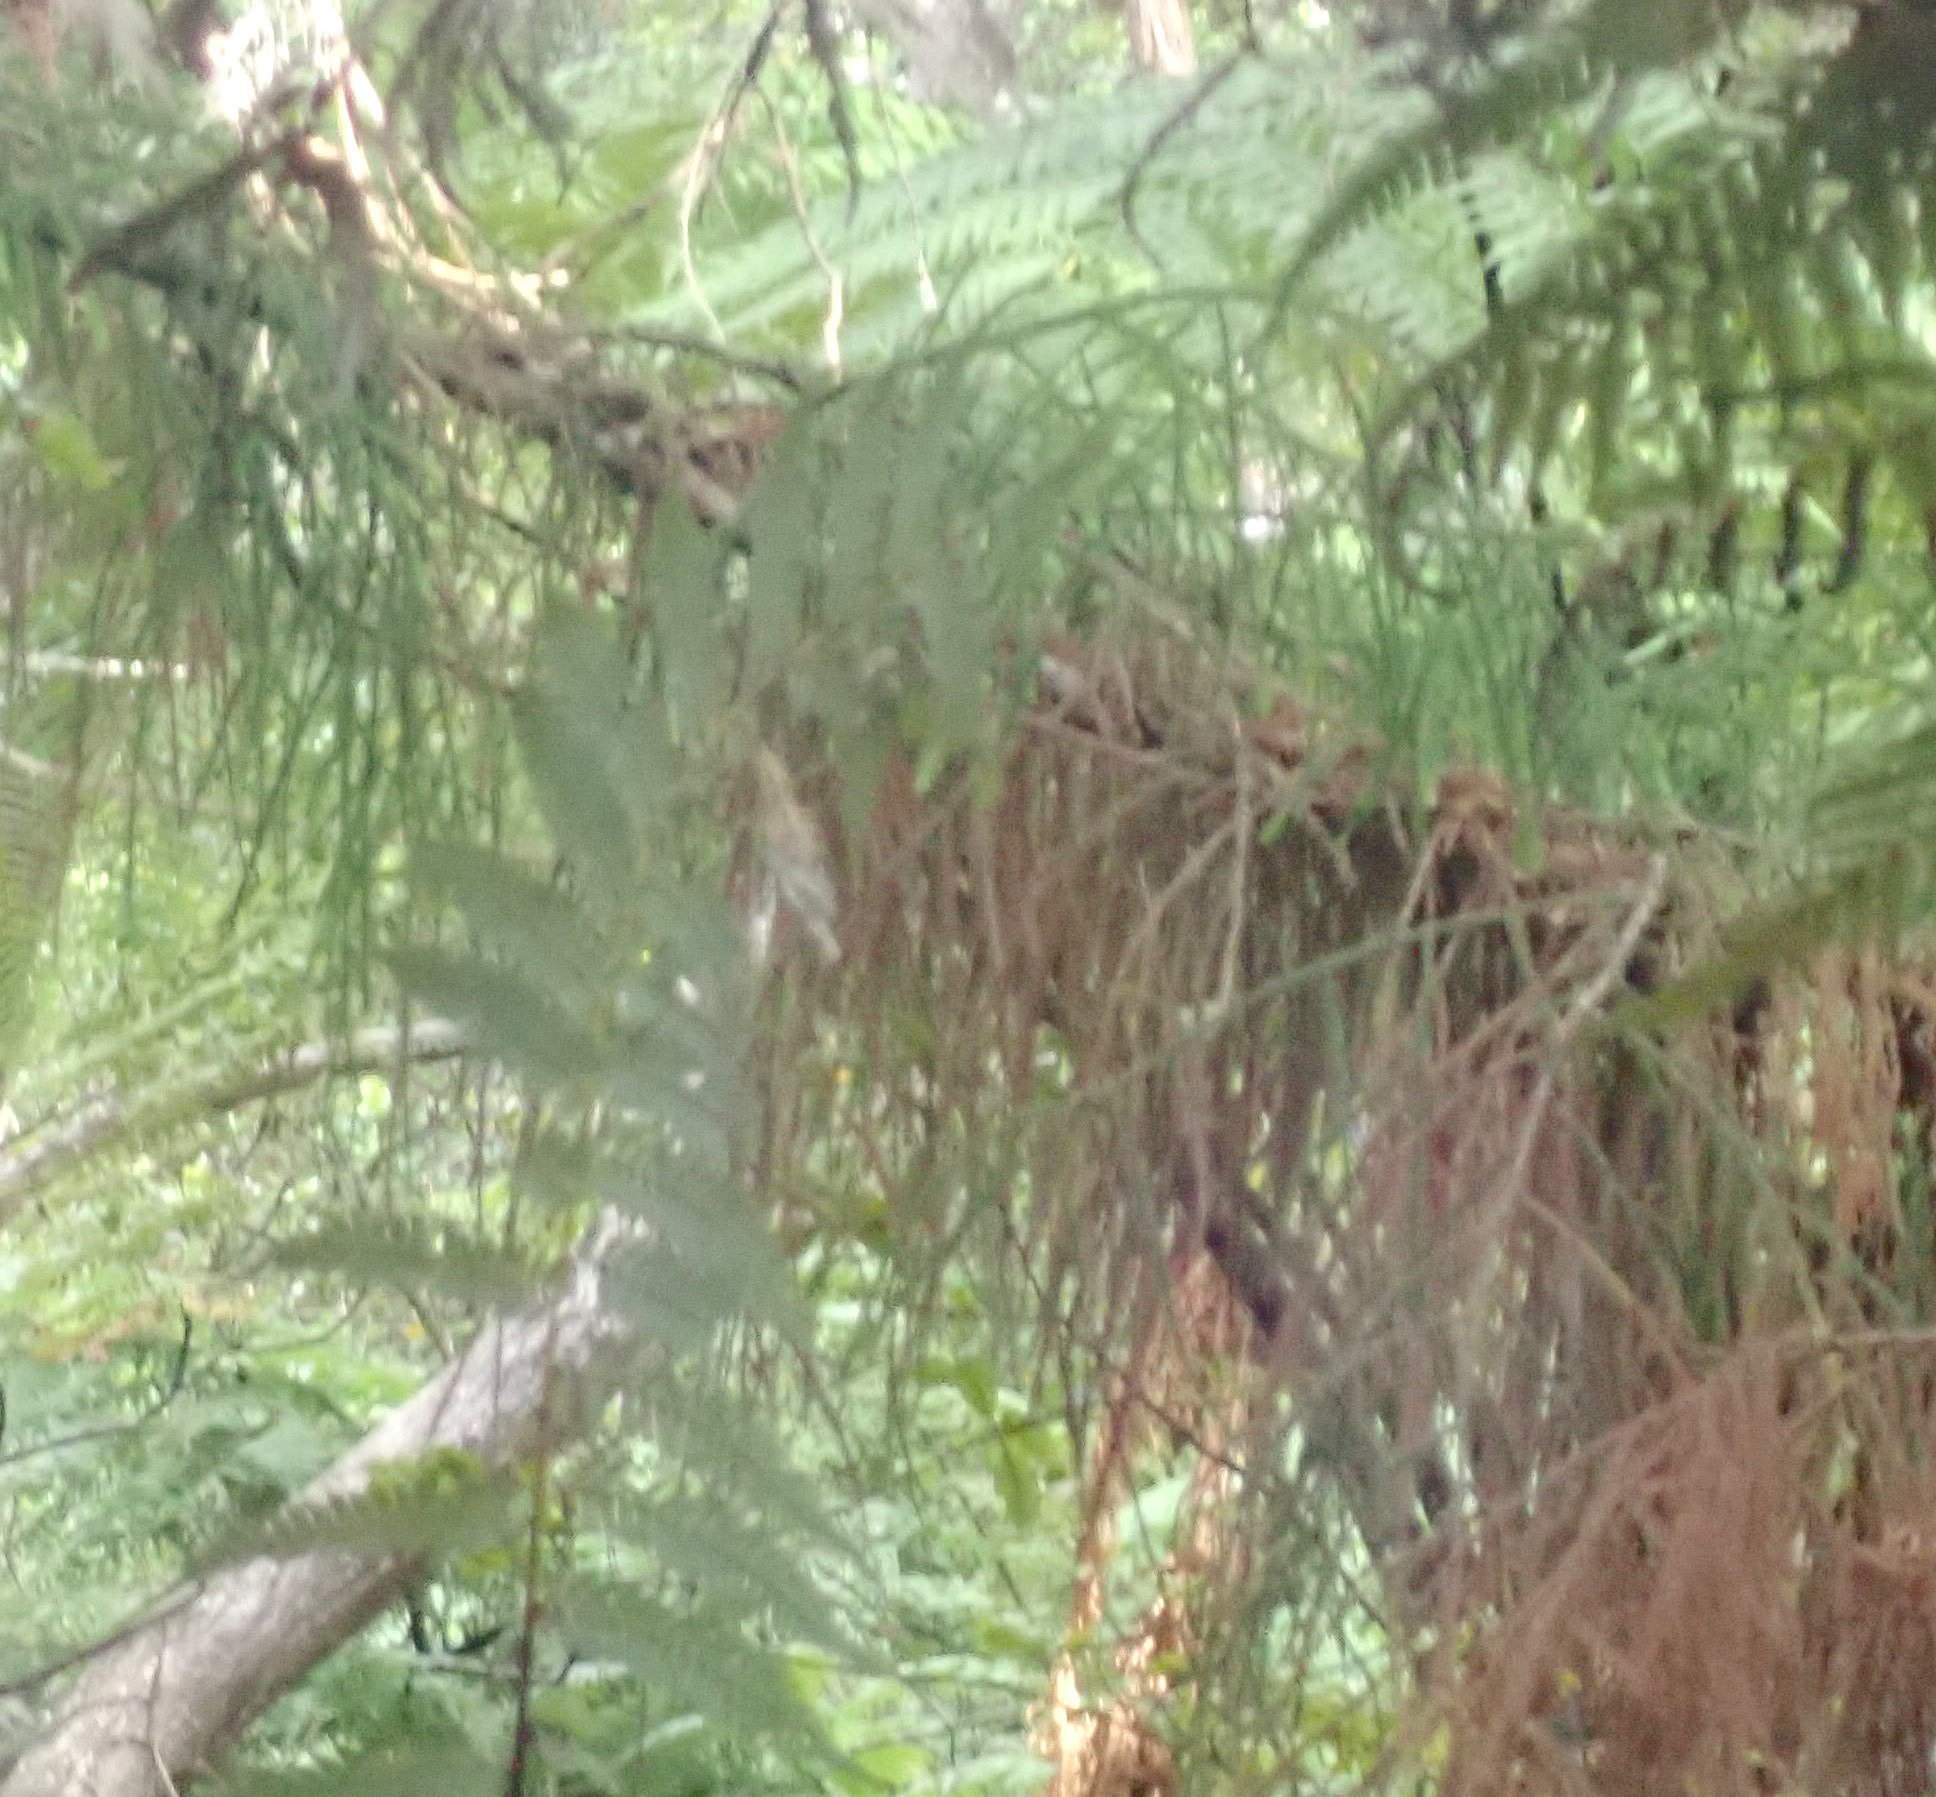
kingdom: Plantae
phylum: Tracheophyta
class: Pinopsida
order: Pinales
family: Podocarpaceae
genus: Dacrydium
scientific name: Dacrydium cupressinum
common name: Red pine
